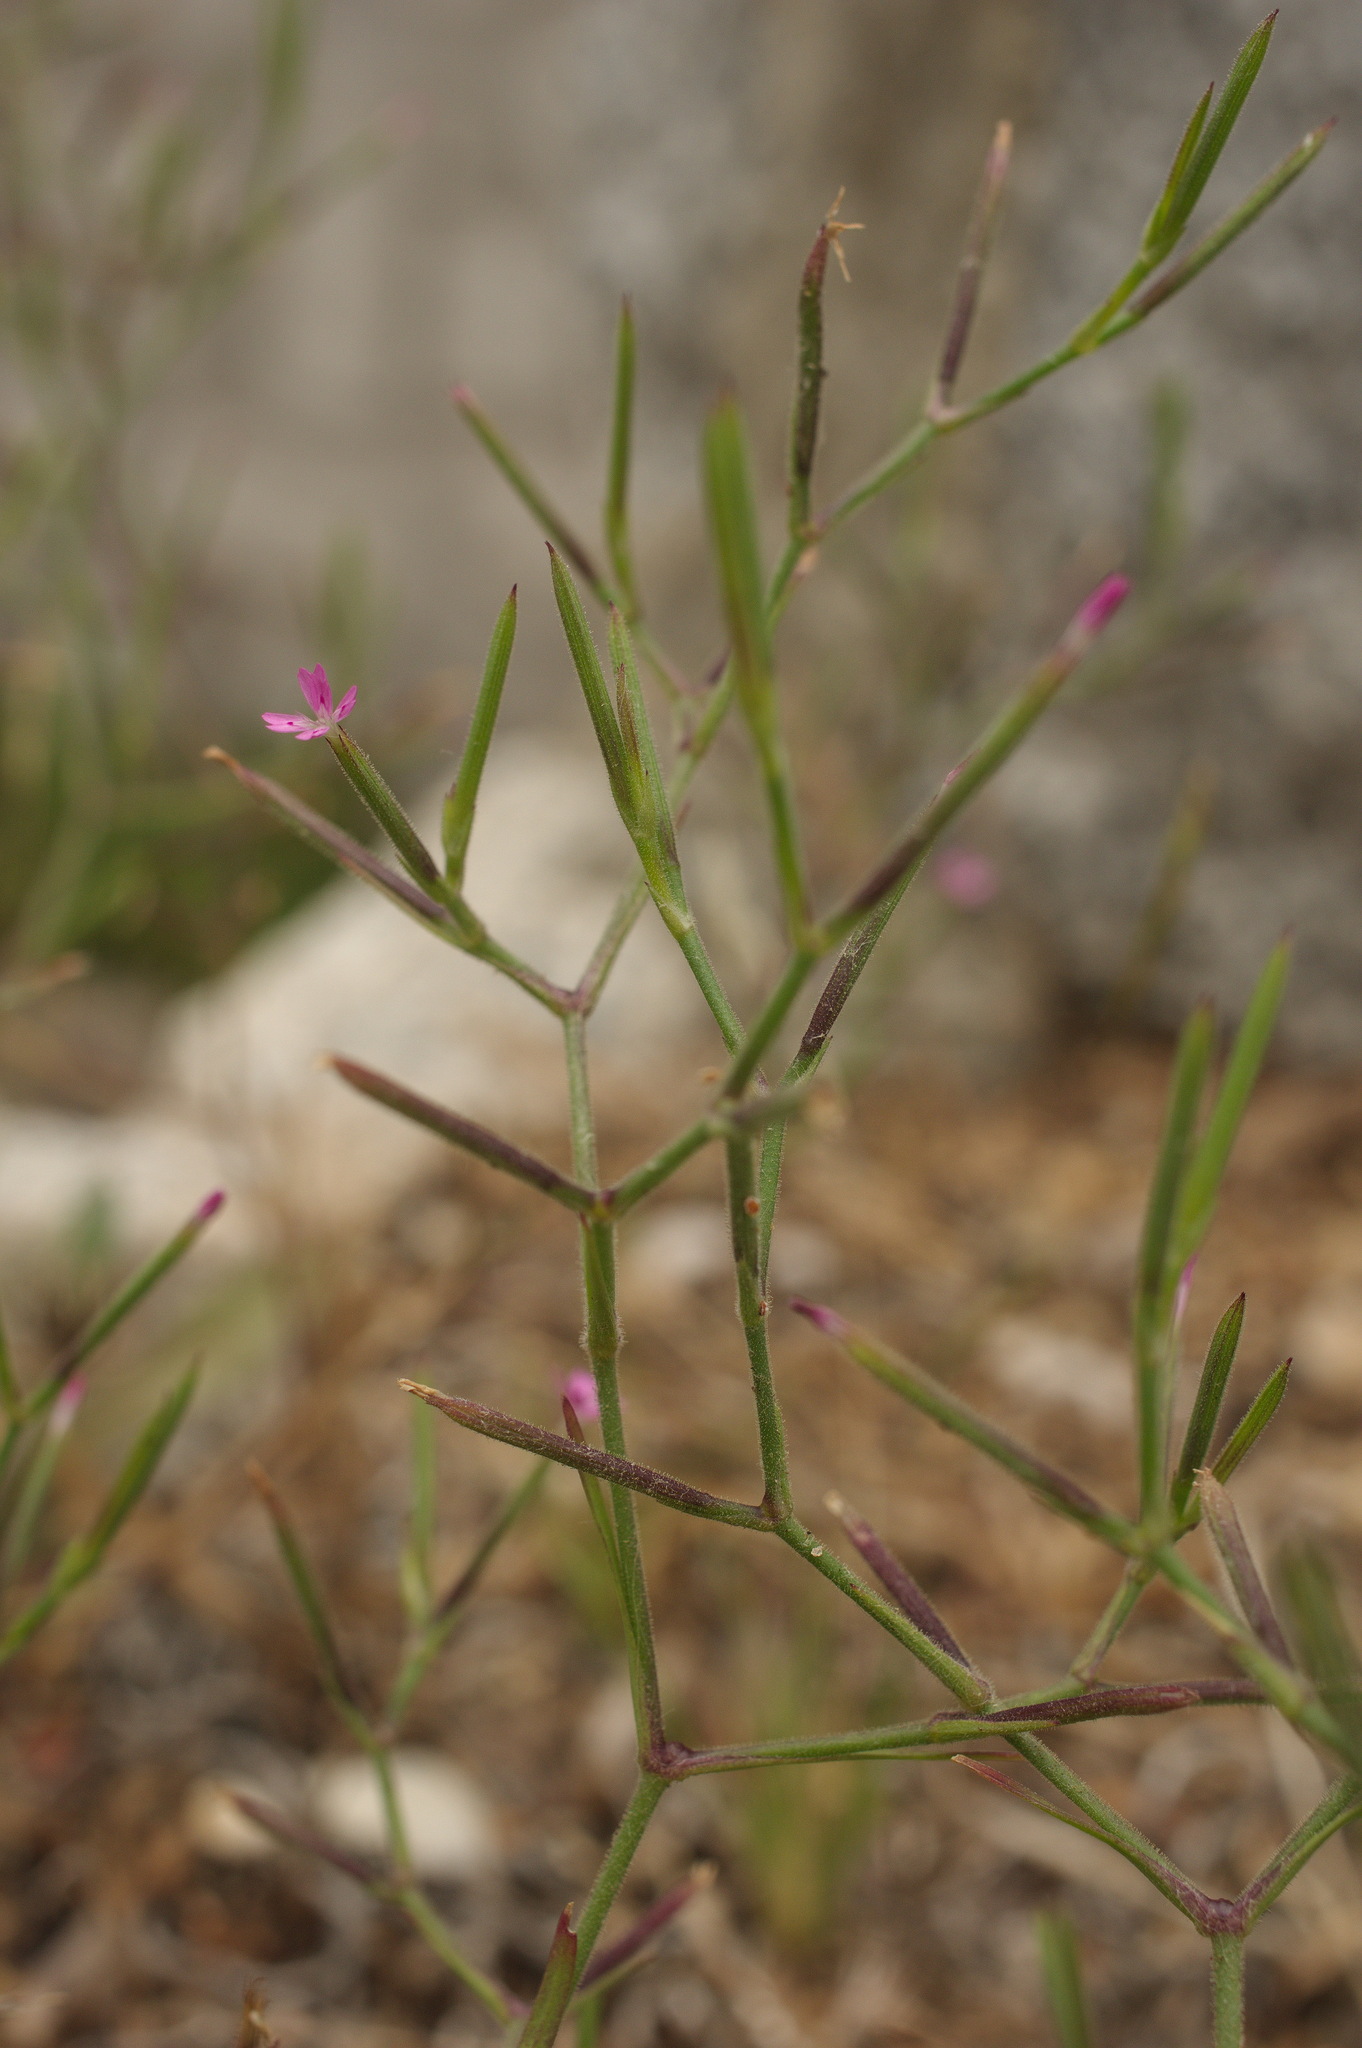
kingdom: Plantae
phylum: Tracheophyta
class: Magnoliopsida
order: Caryophyllales
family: Caryophyllaceae
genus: Dianthus
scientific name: Dianthus nudiflorus
